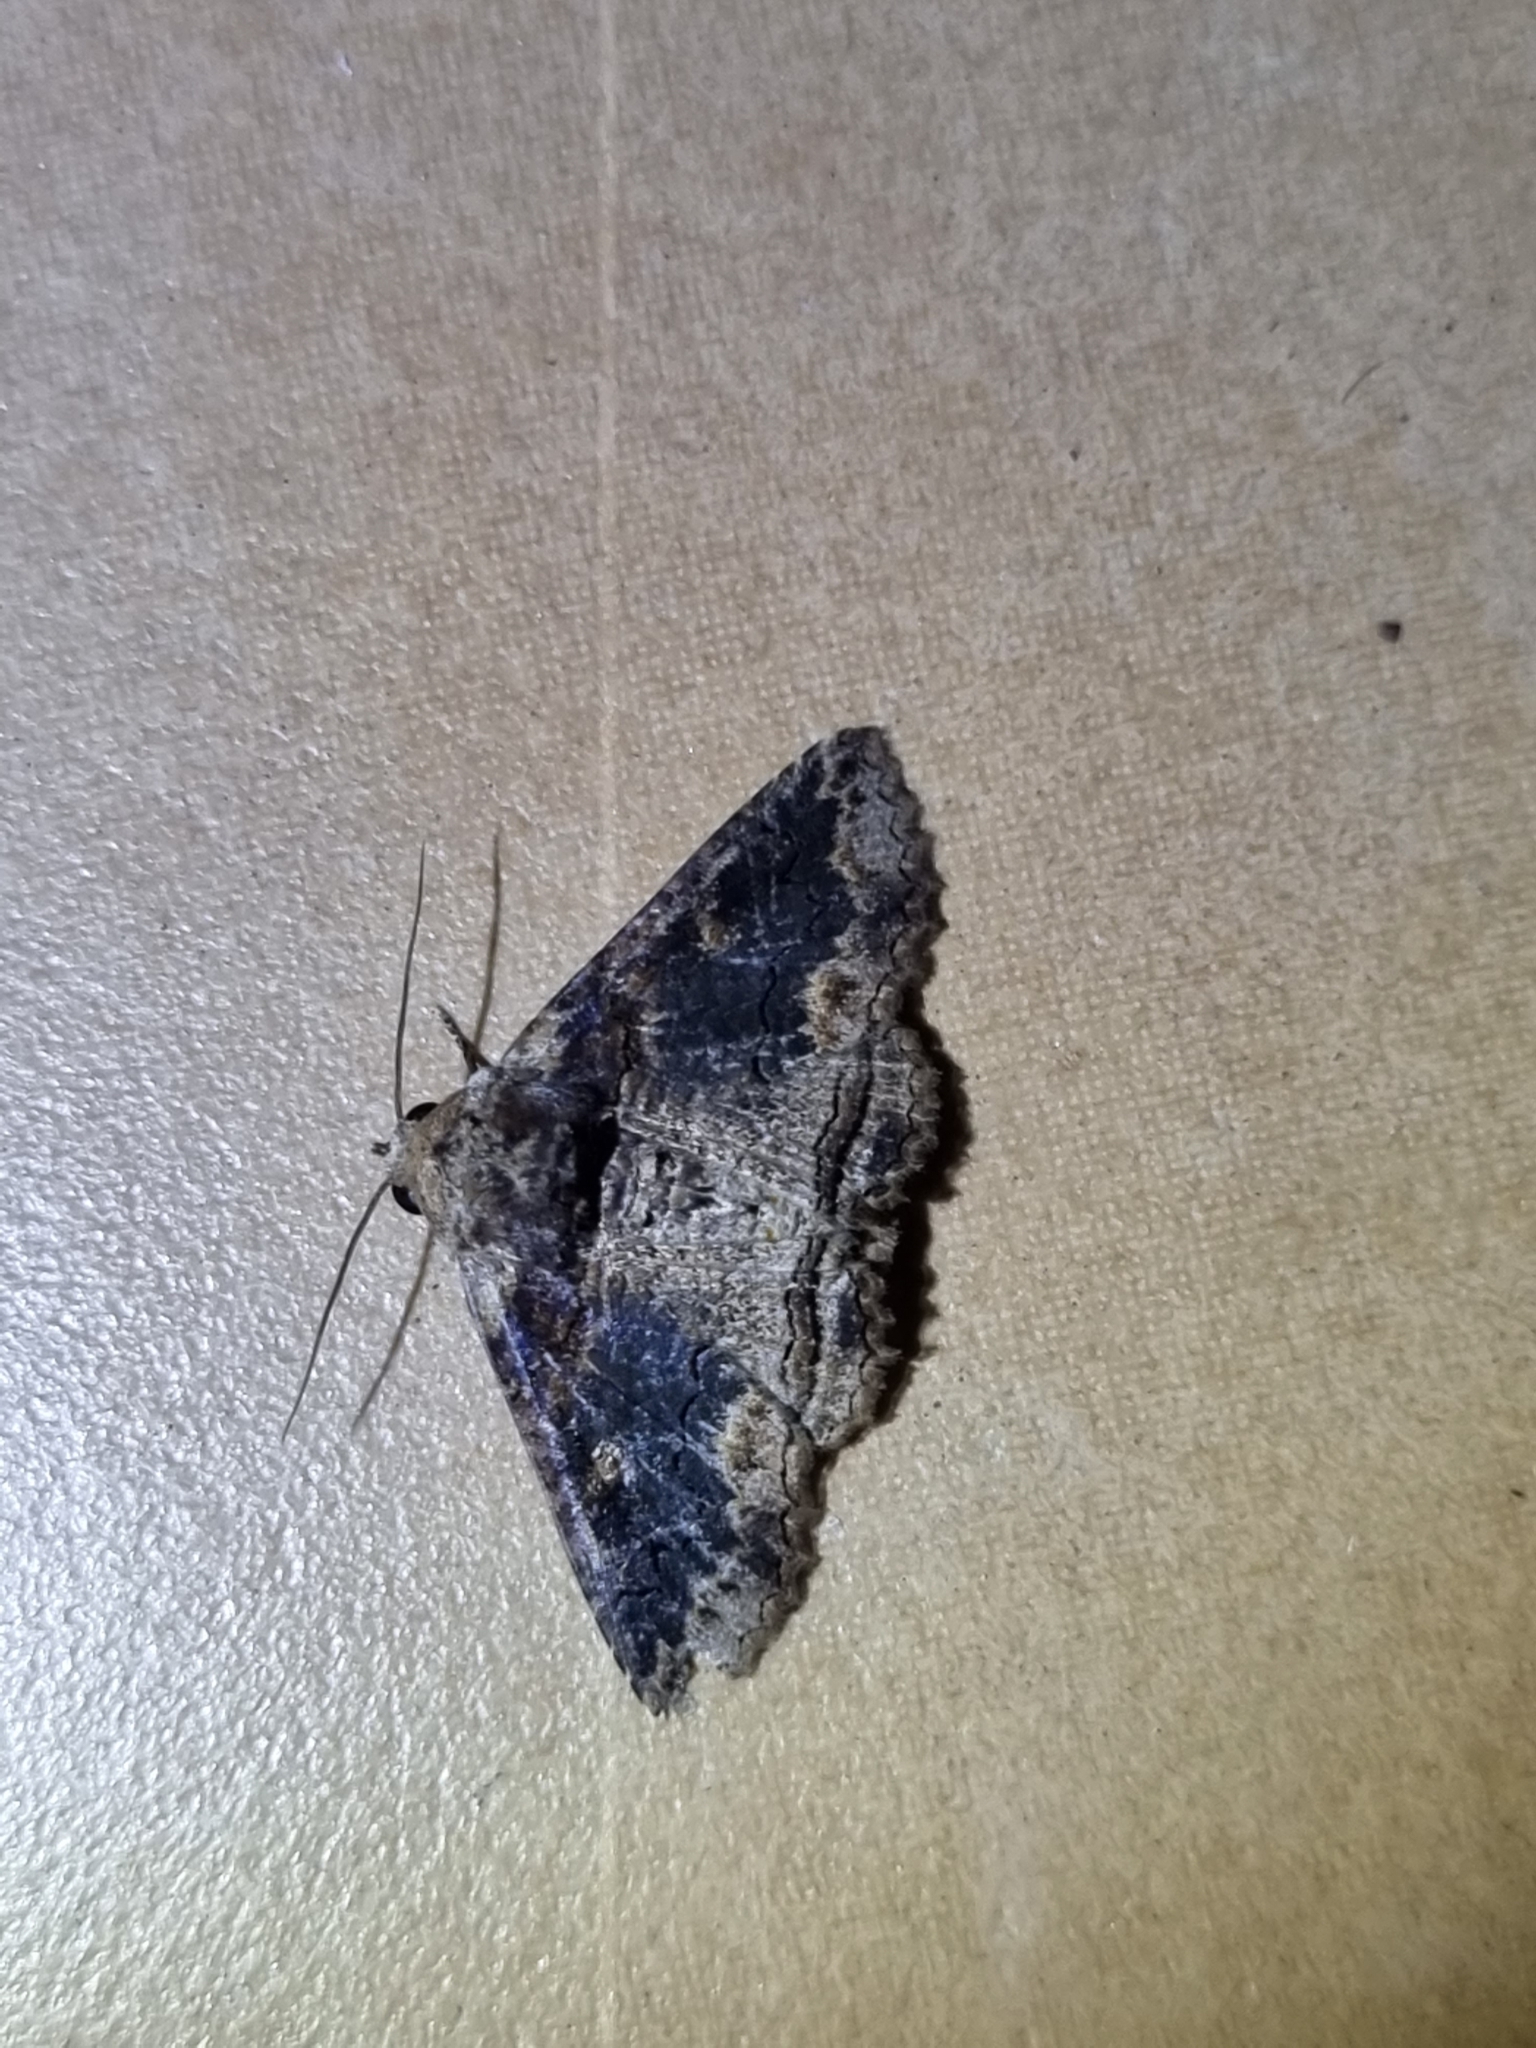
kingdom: Animalia
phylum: Arthropoda
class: Insecta
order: Lepidoptera
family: Erebidae
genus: Pericyma
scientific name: Pericyma cruegeri
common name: Poinciana looper
